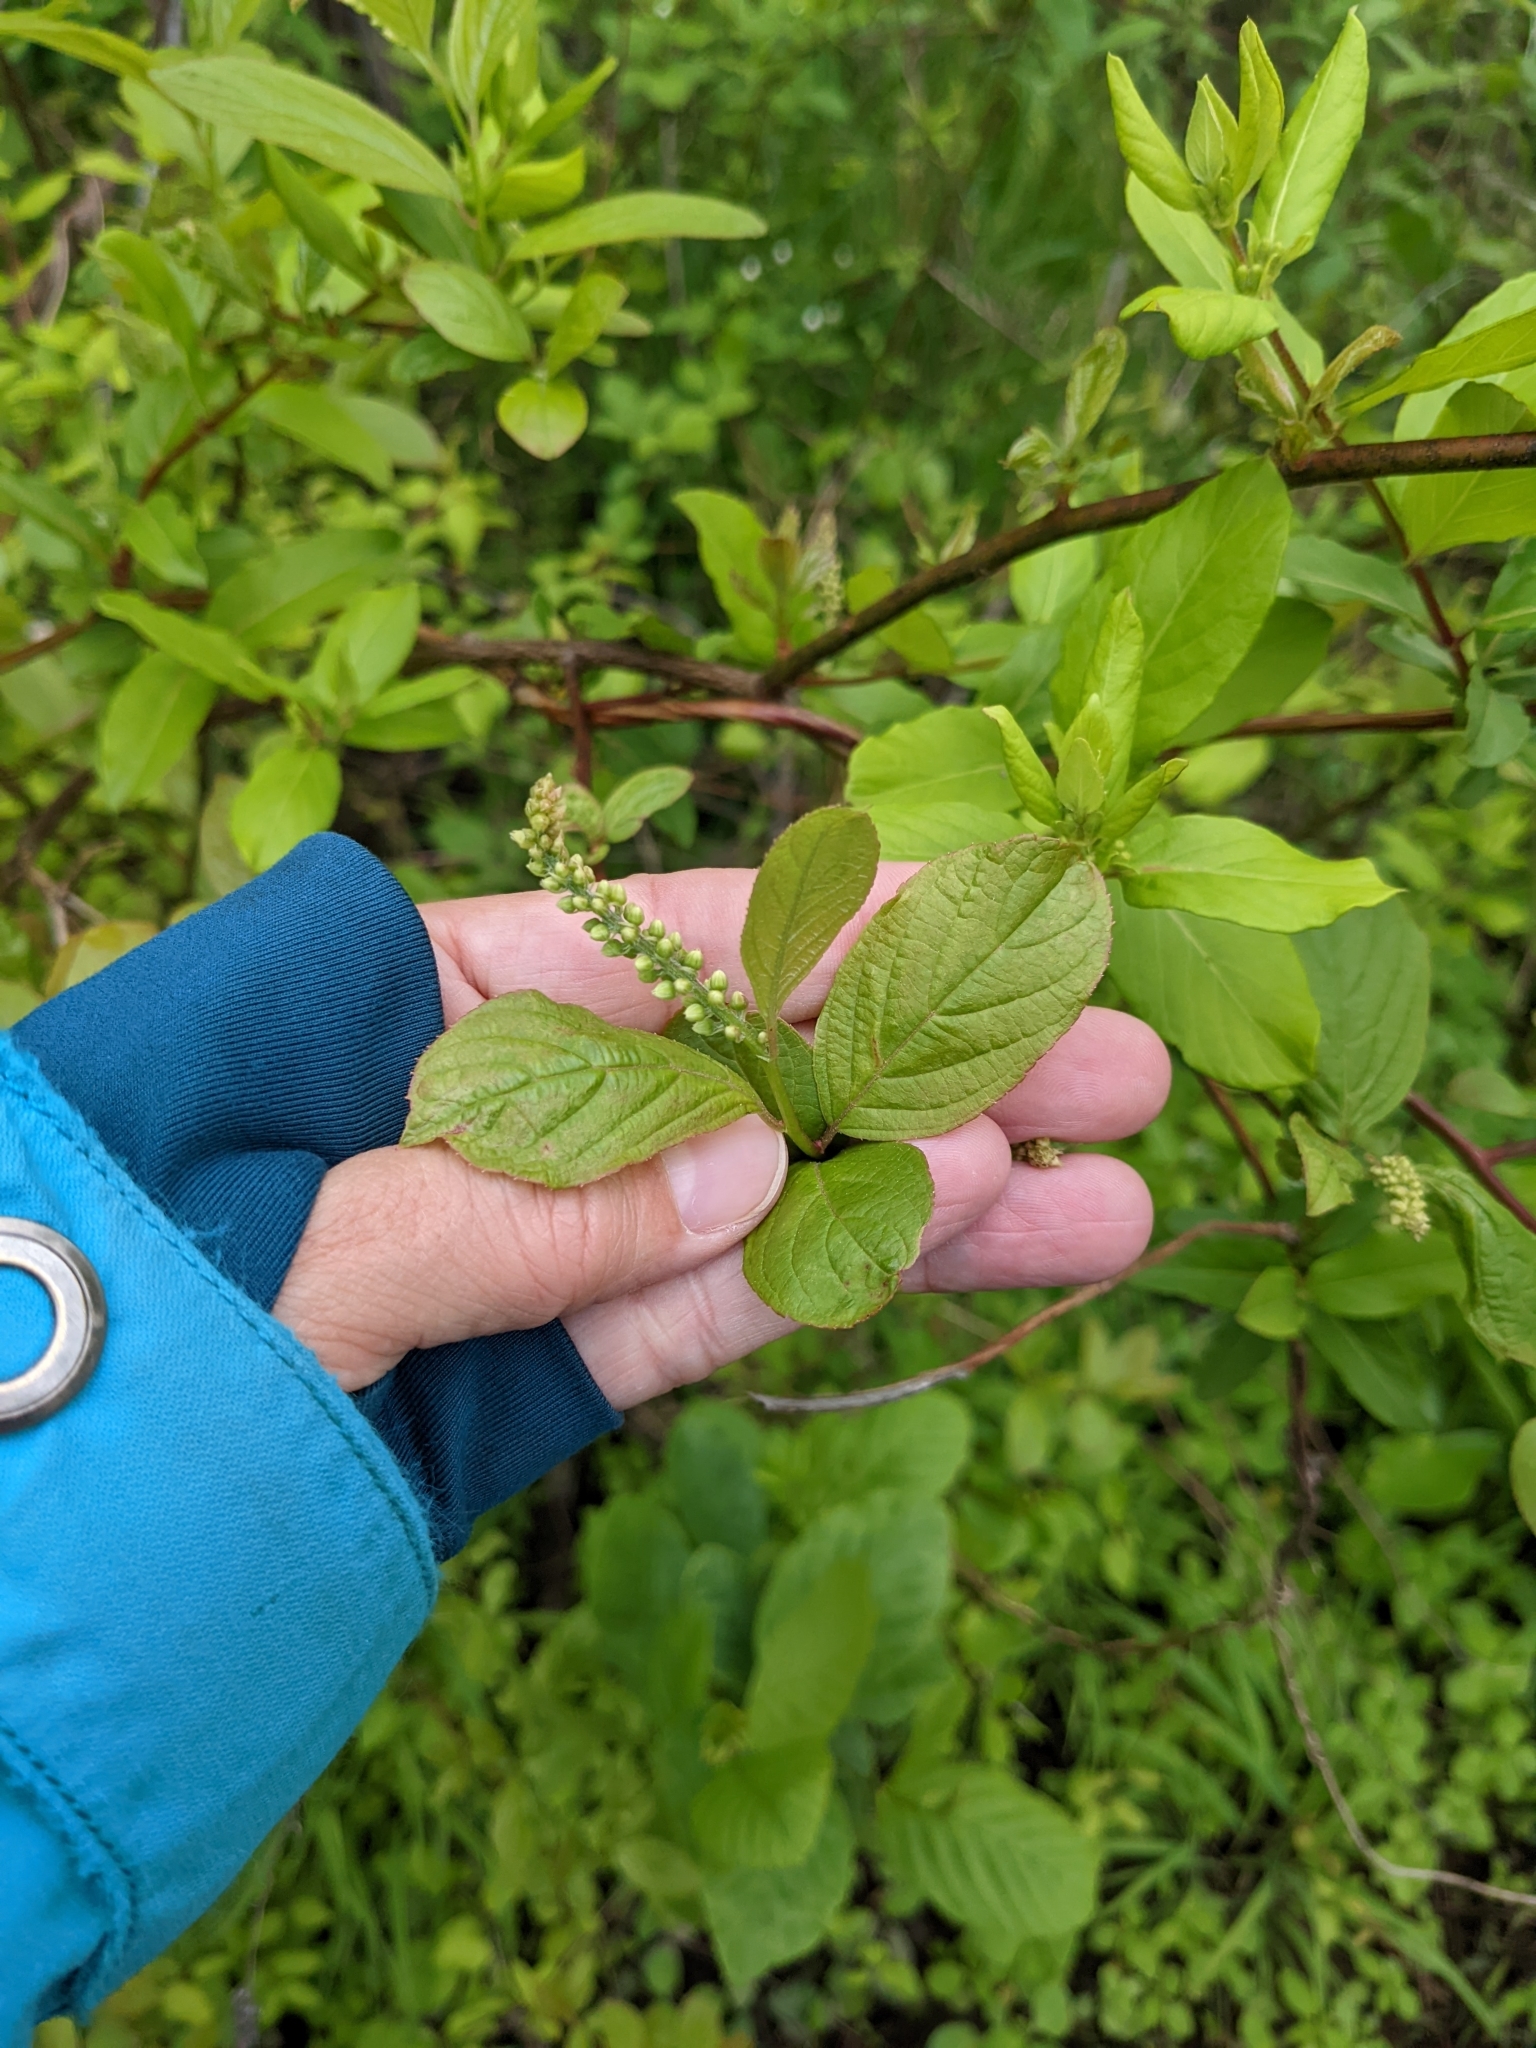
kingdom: Plantae
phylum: Tracheophyta
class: Magnoliopsida
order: Ericales
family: Clethraceae
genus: Clethra
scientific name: Clethra alnifolia
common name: Sweet pepperbush
